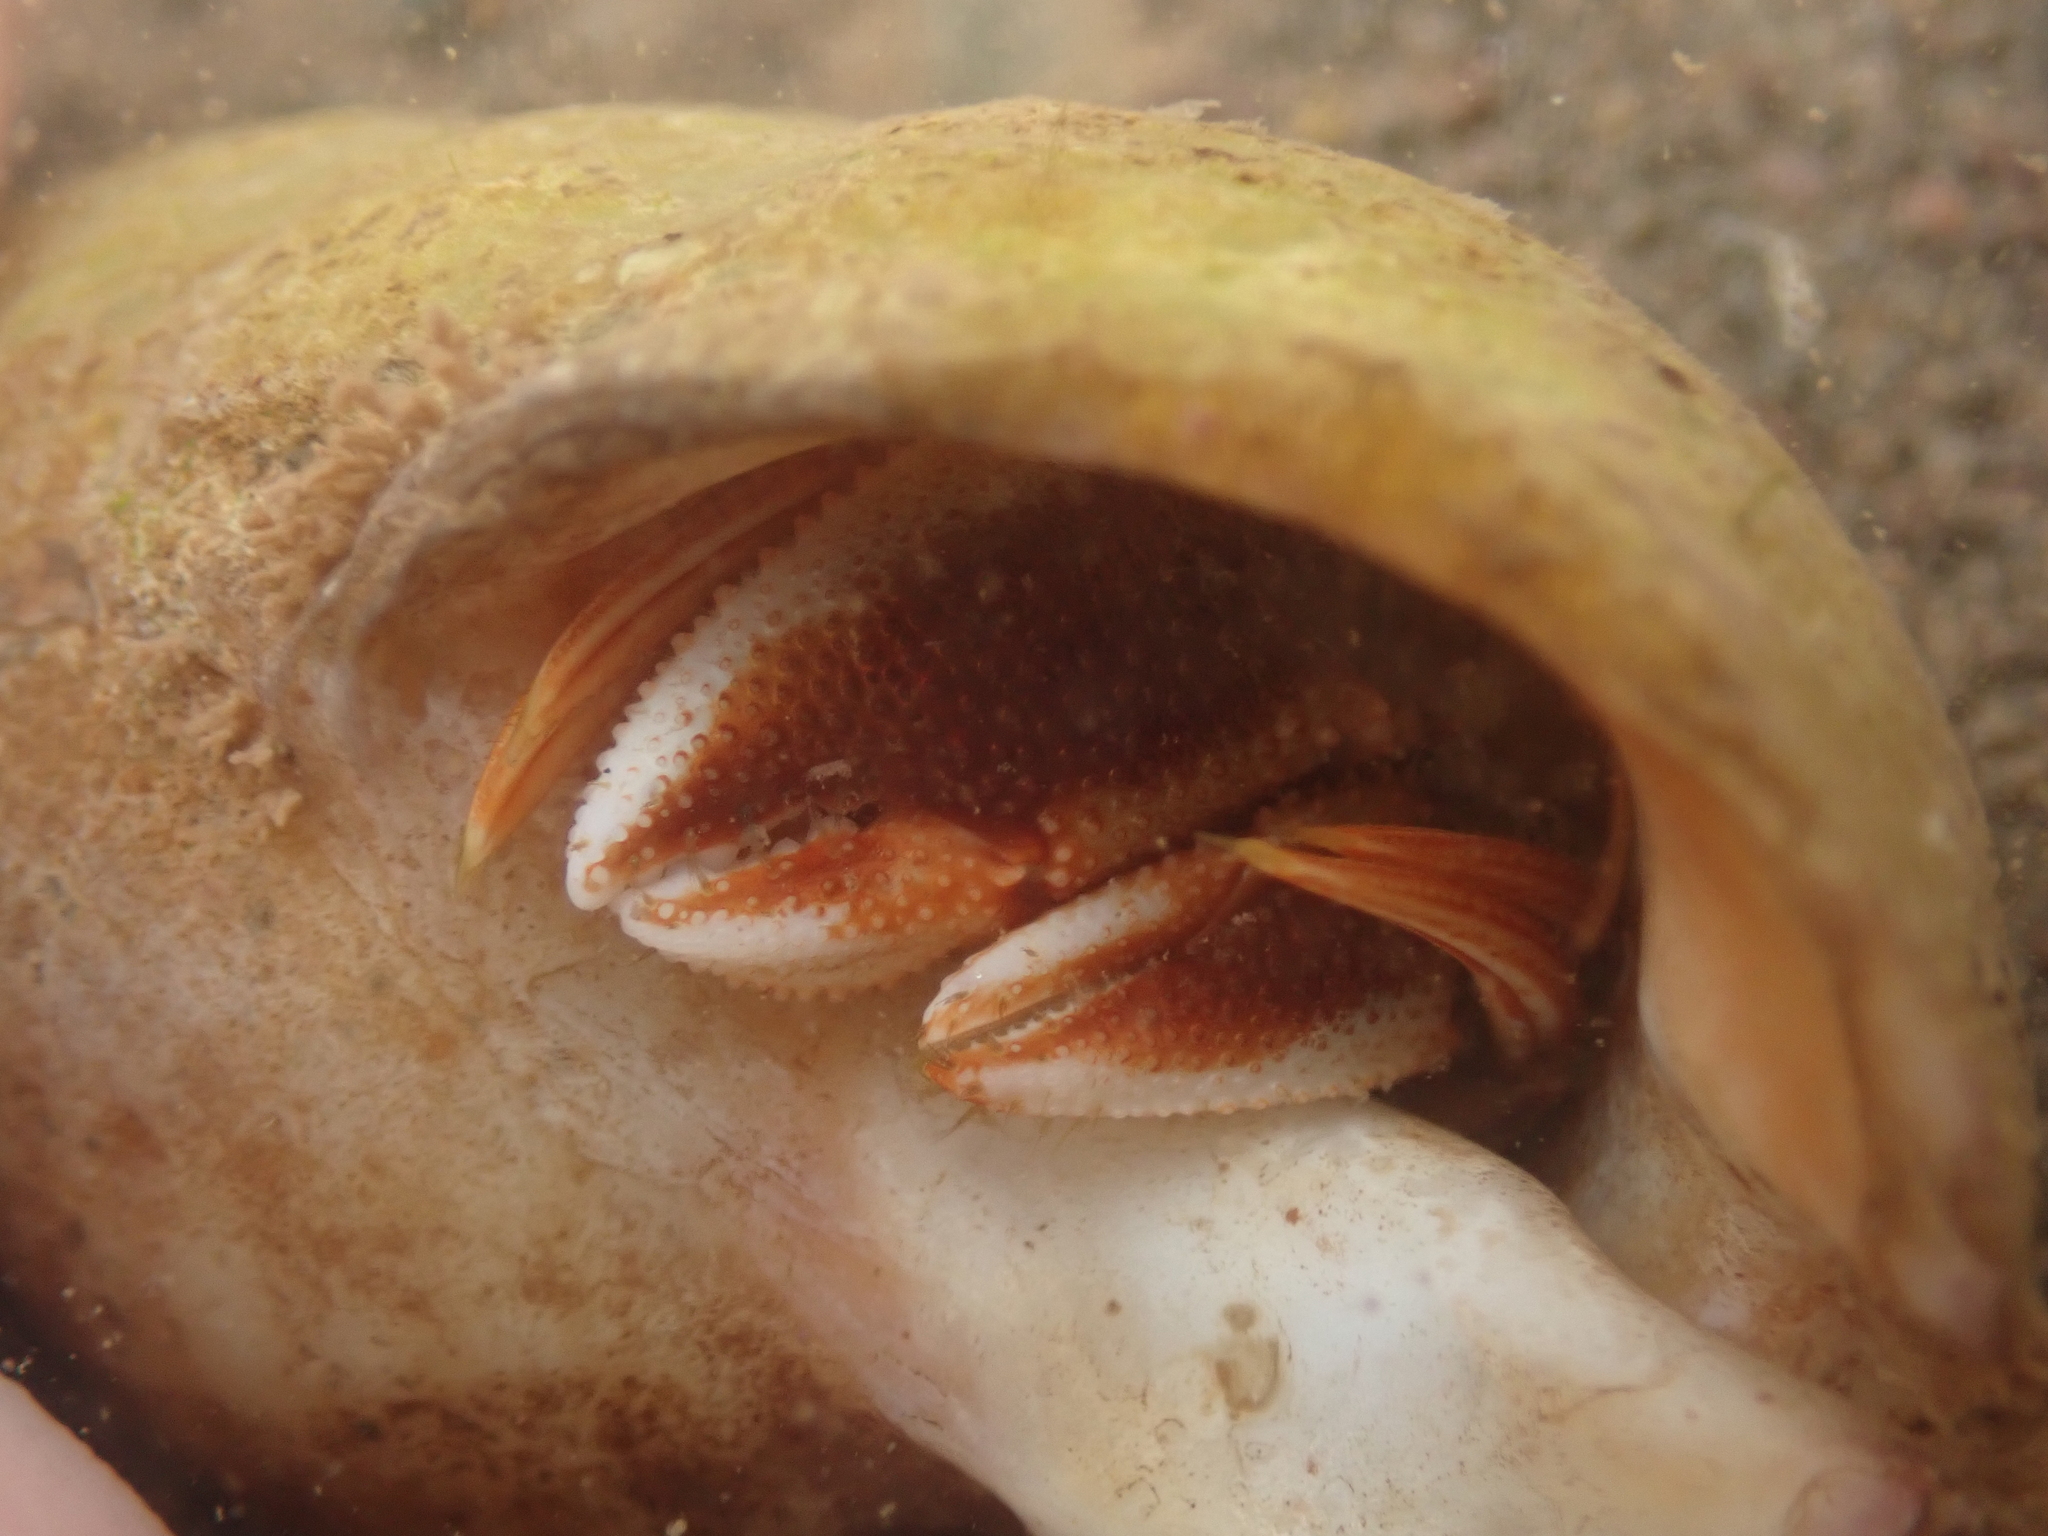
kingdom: Animalia
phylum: Arthropoda
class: Malacostraca
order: Decapoda
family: Paguridae
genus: Pagurus
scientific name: Pagurus acadianus
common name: Acadian hermit crab
